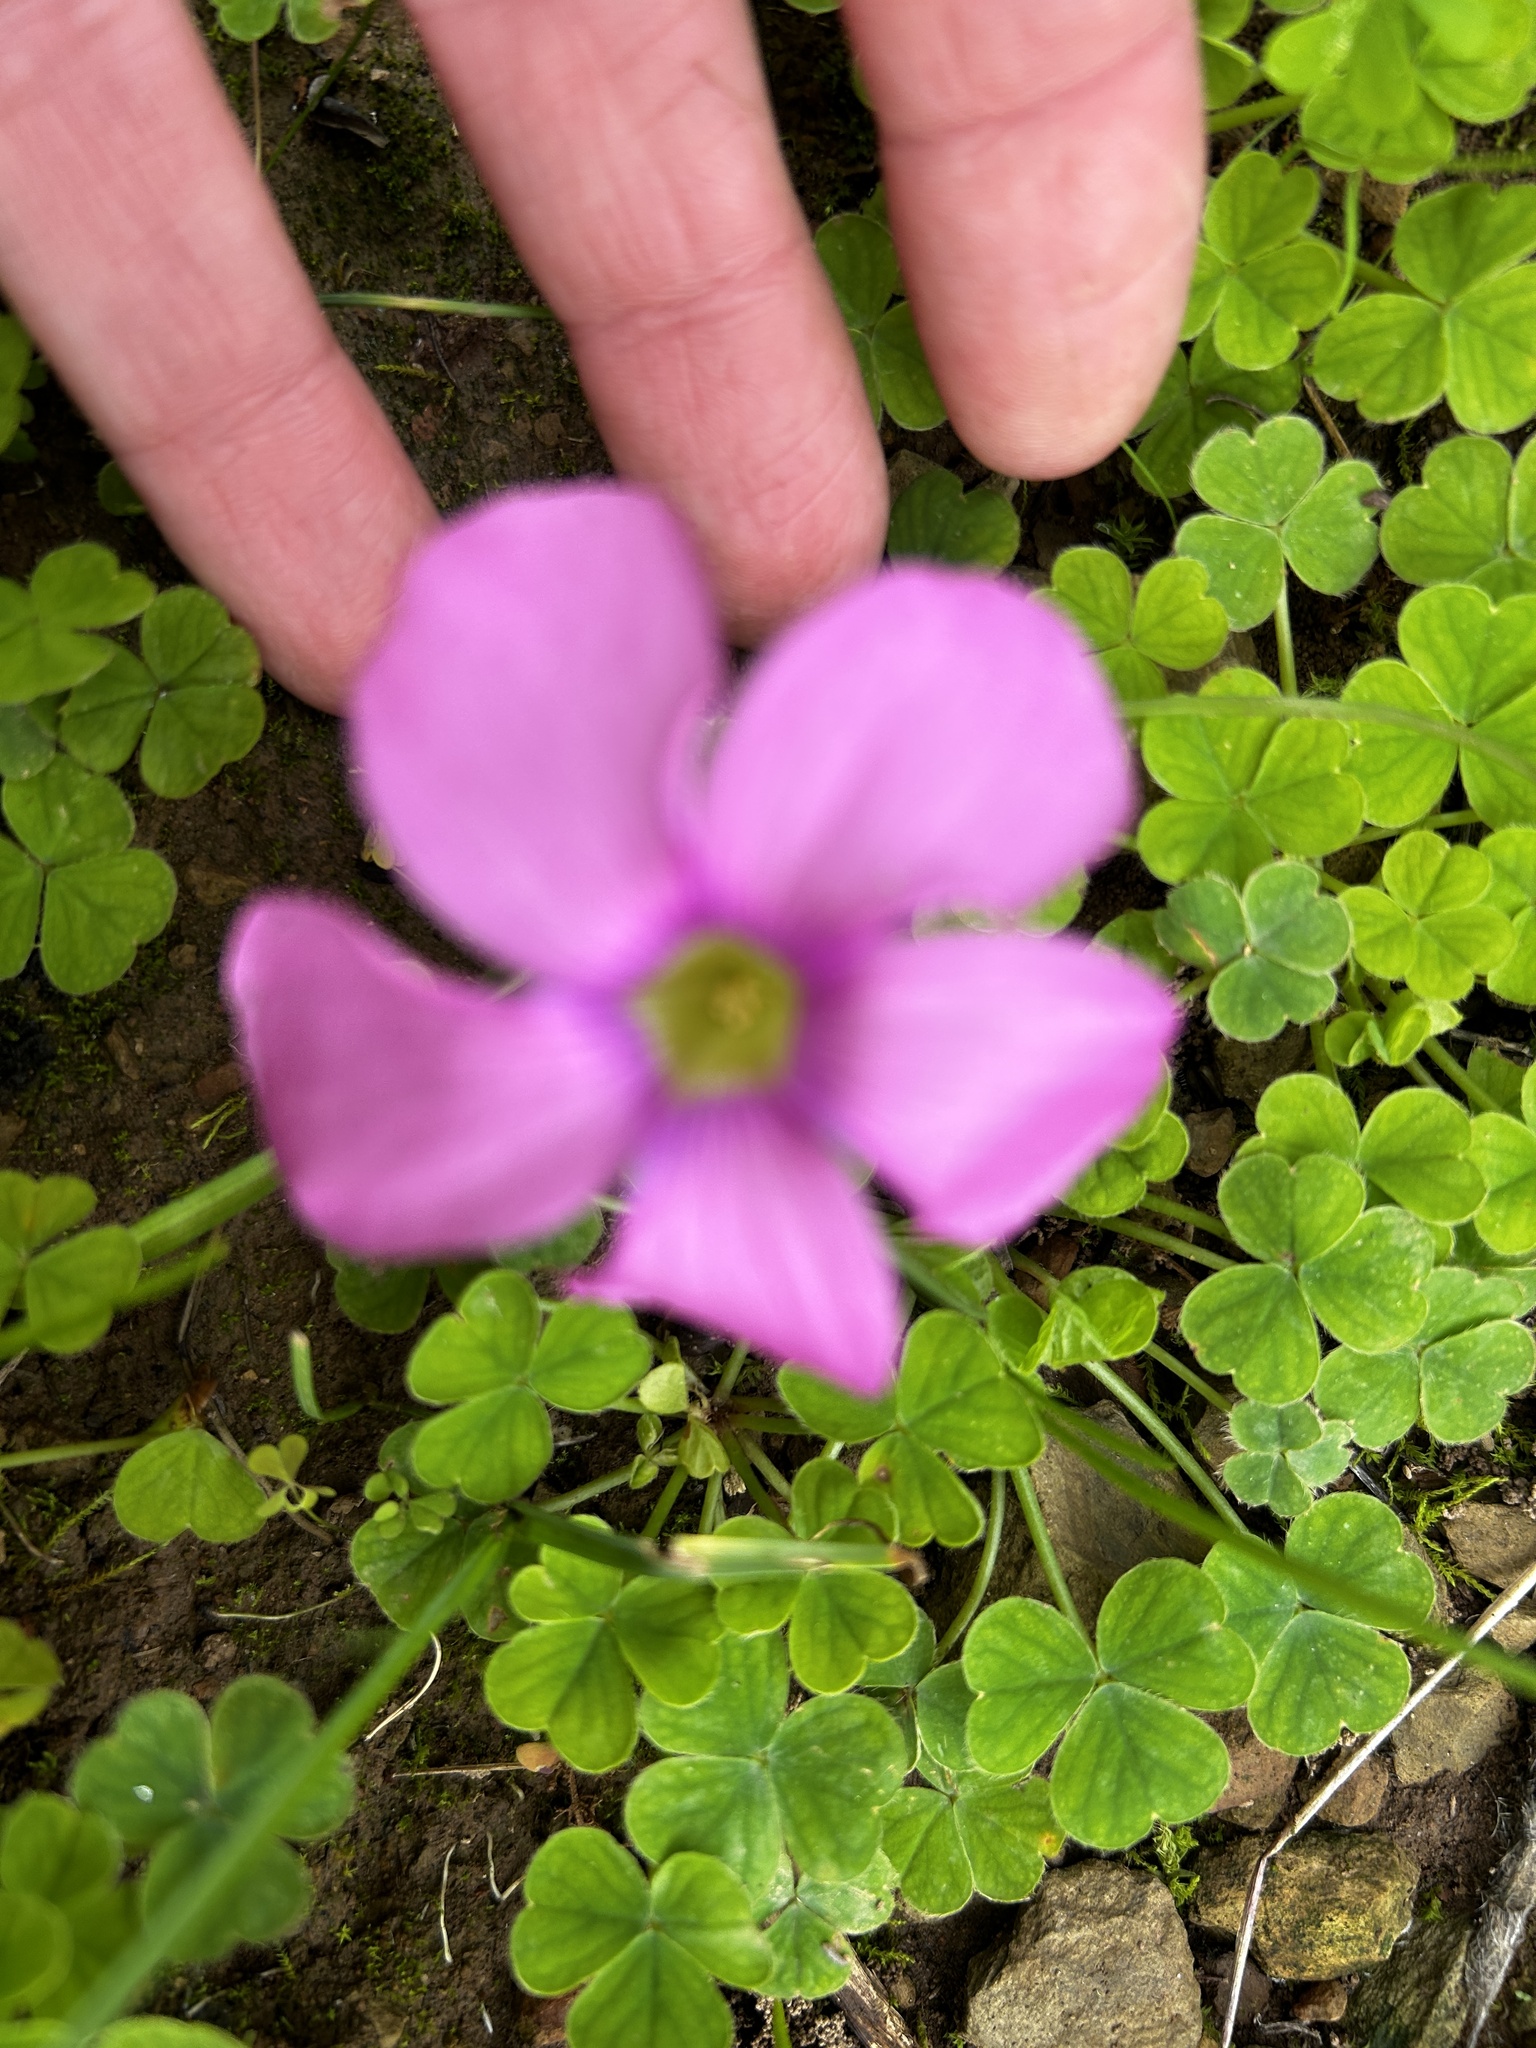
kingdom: Plantae
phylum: Tracheophyta
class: Magnoliopsida
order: Oxalidales
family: Oxalidaceae
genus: Oxalis
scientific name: Oxalis purpurea
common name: Purple woodsorrel
